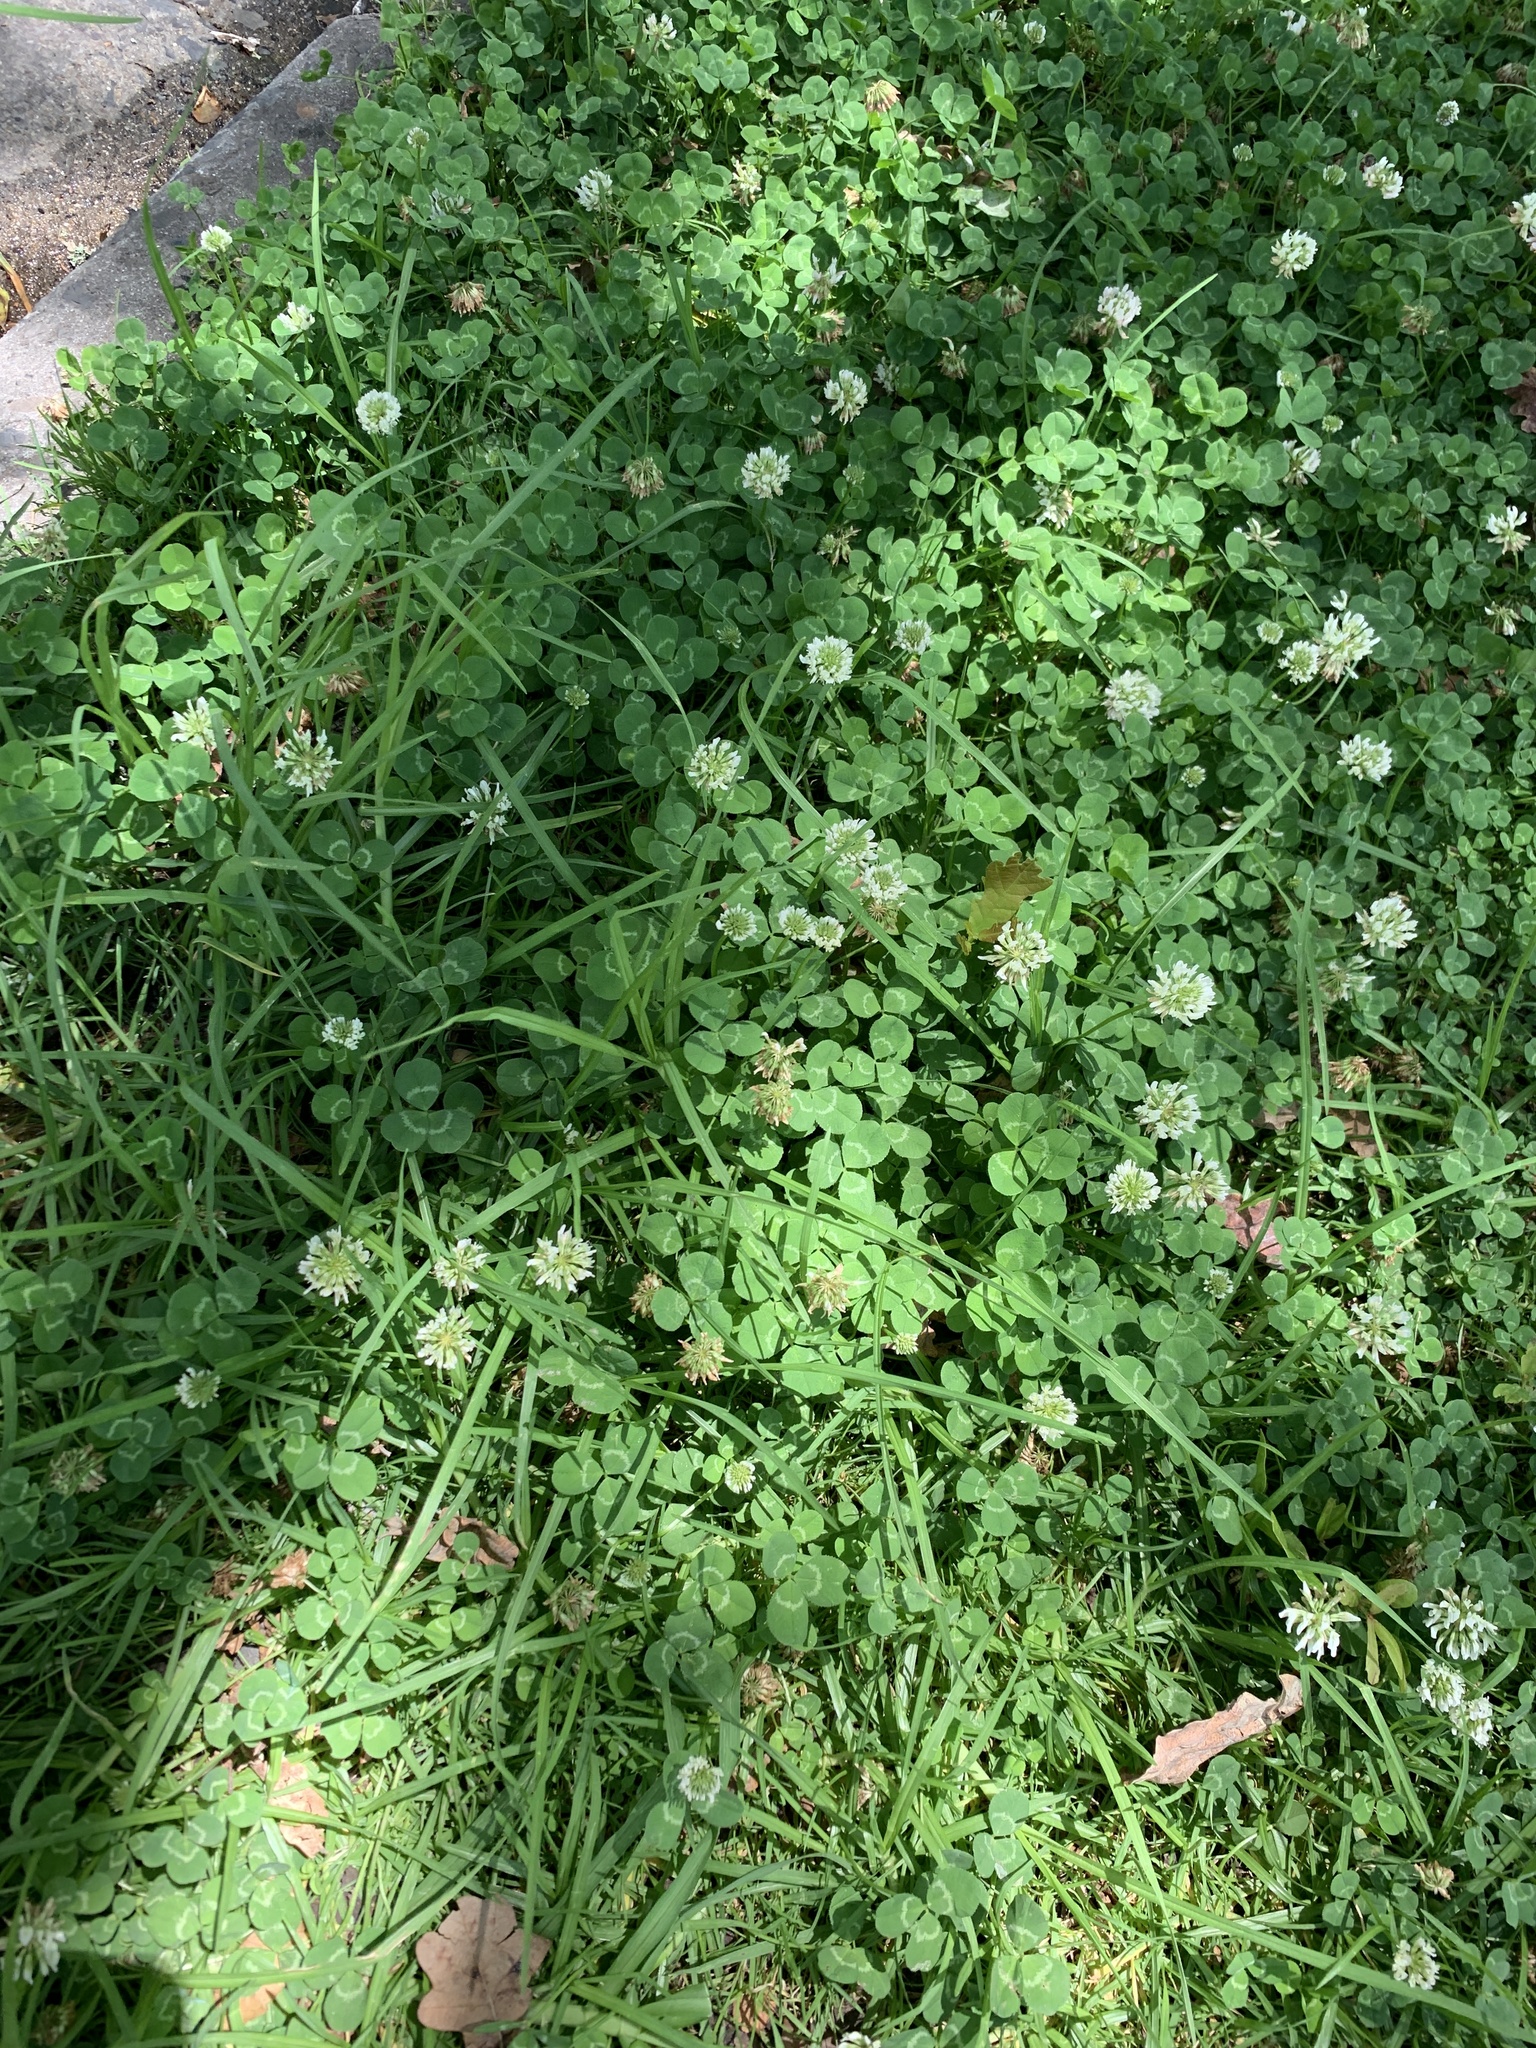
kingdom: Plantae
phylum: Tracheophyta
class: Magnoliopsida
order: Fabales
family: Fabaceae
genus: Trifolium
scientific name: Trifolium repens
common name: White clover
